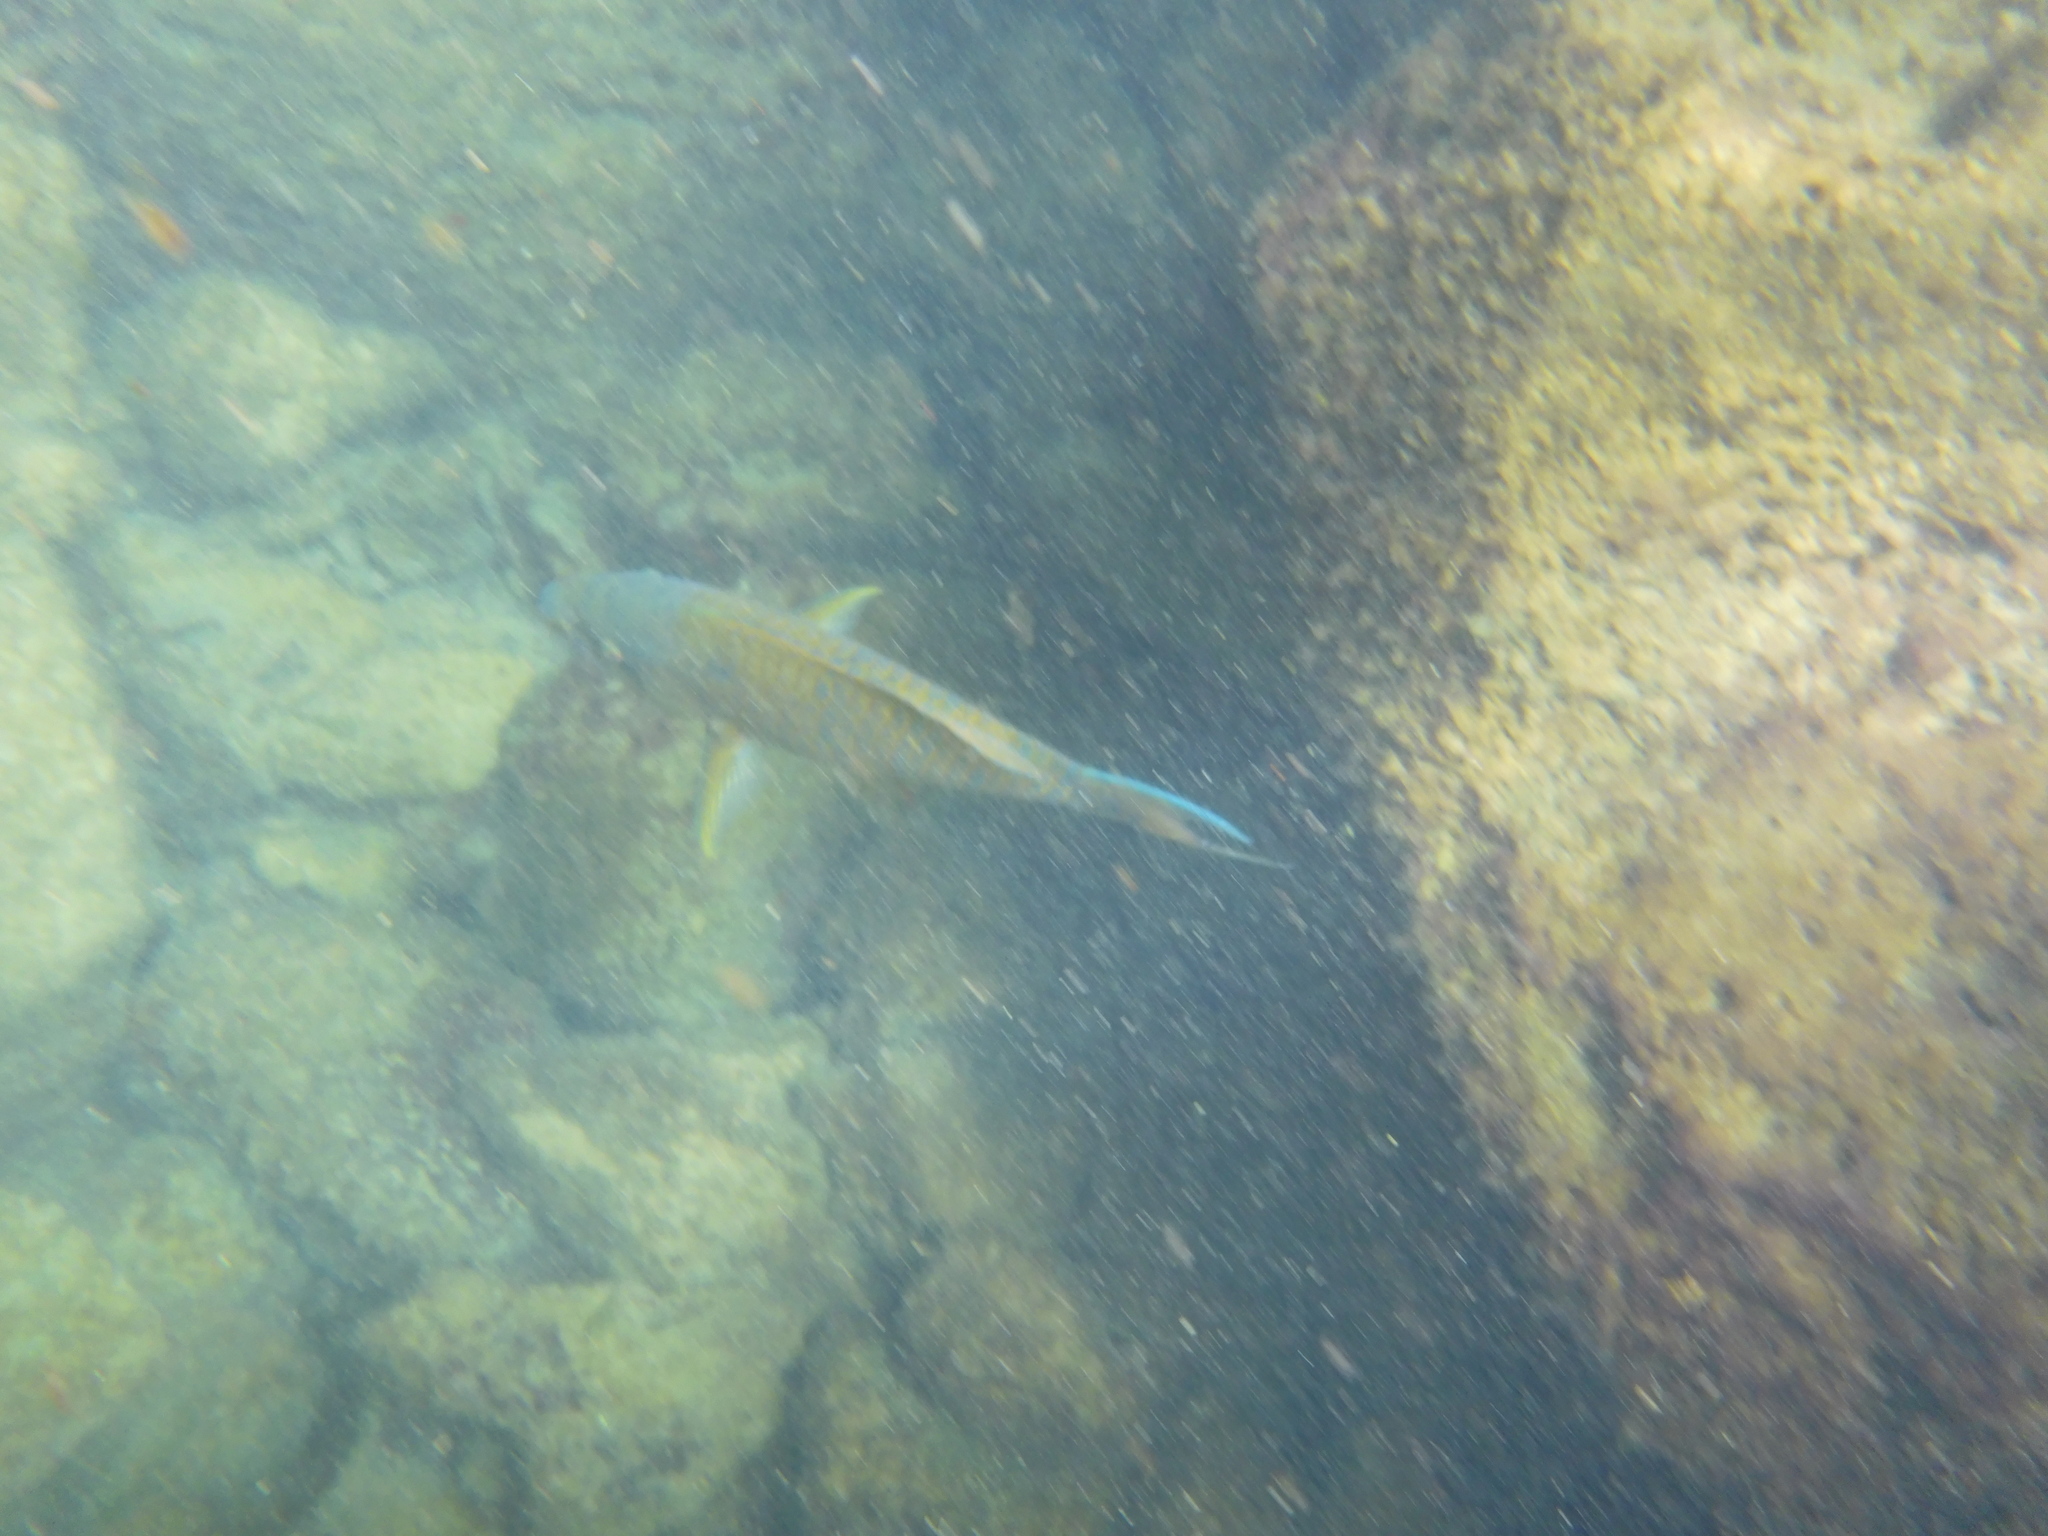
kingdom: Animalia
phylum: Chordata
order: Perciformes
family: Scaridae
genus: Scarus
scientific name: Scarus ghobban
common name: Blue-barred parrotfish
